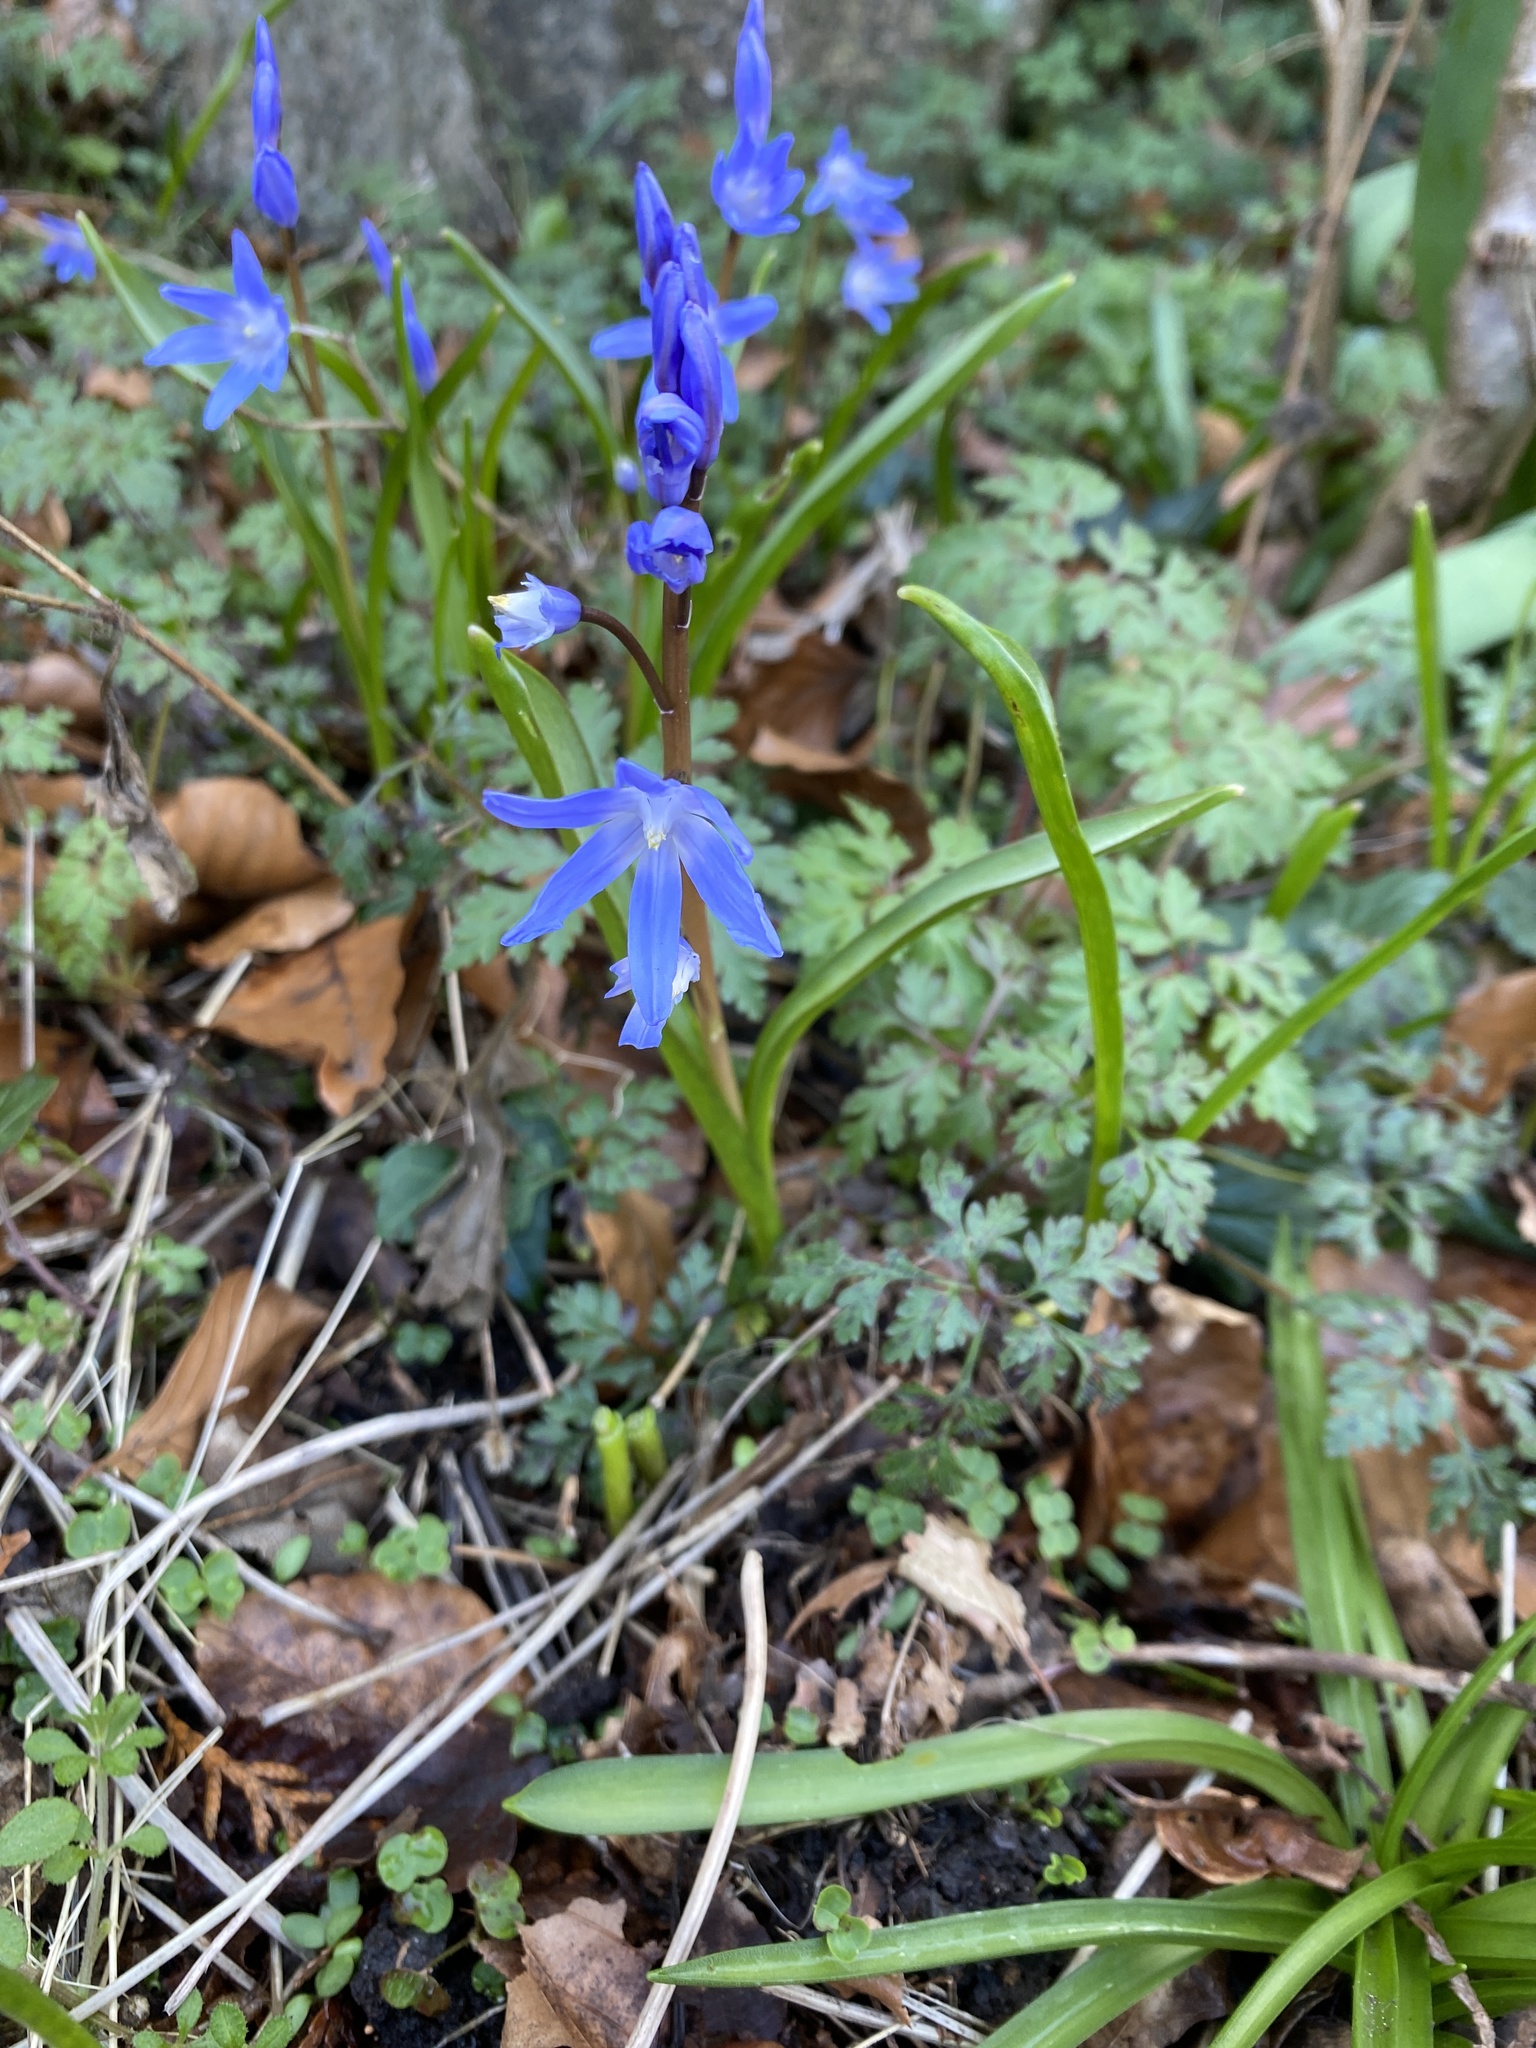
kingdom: Plantae
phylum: Tracheophyta
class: Liliopsida
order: Asparagales
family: Asparagaceae
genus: Scilla
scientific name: Scilla forbesii
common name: Glory-of-the-snow
